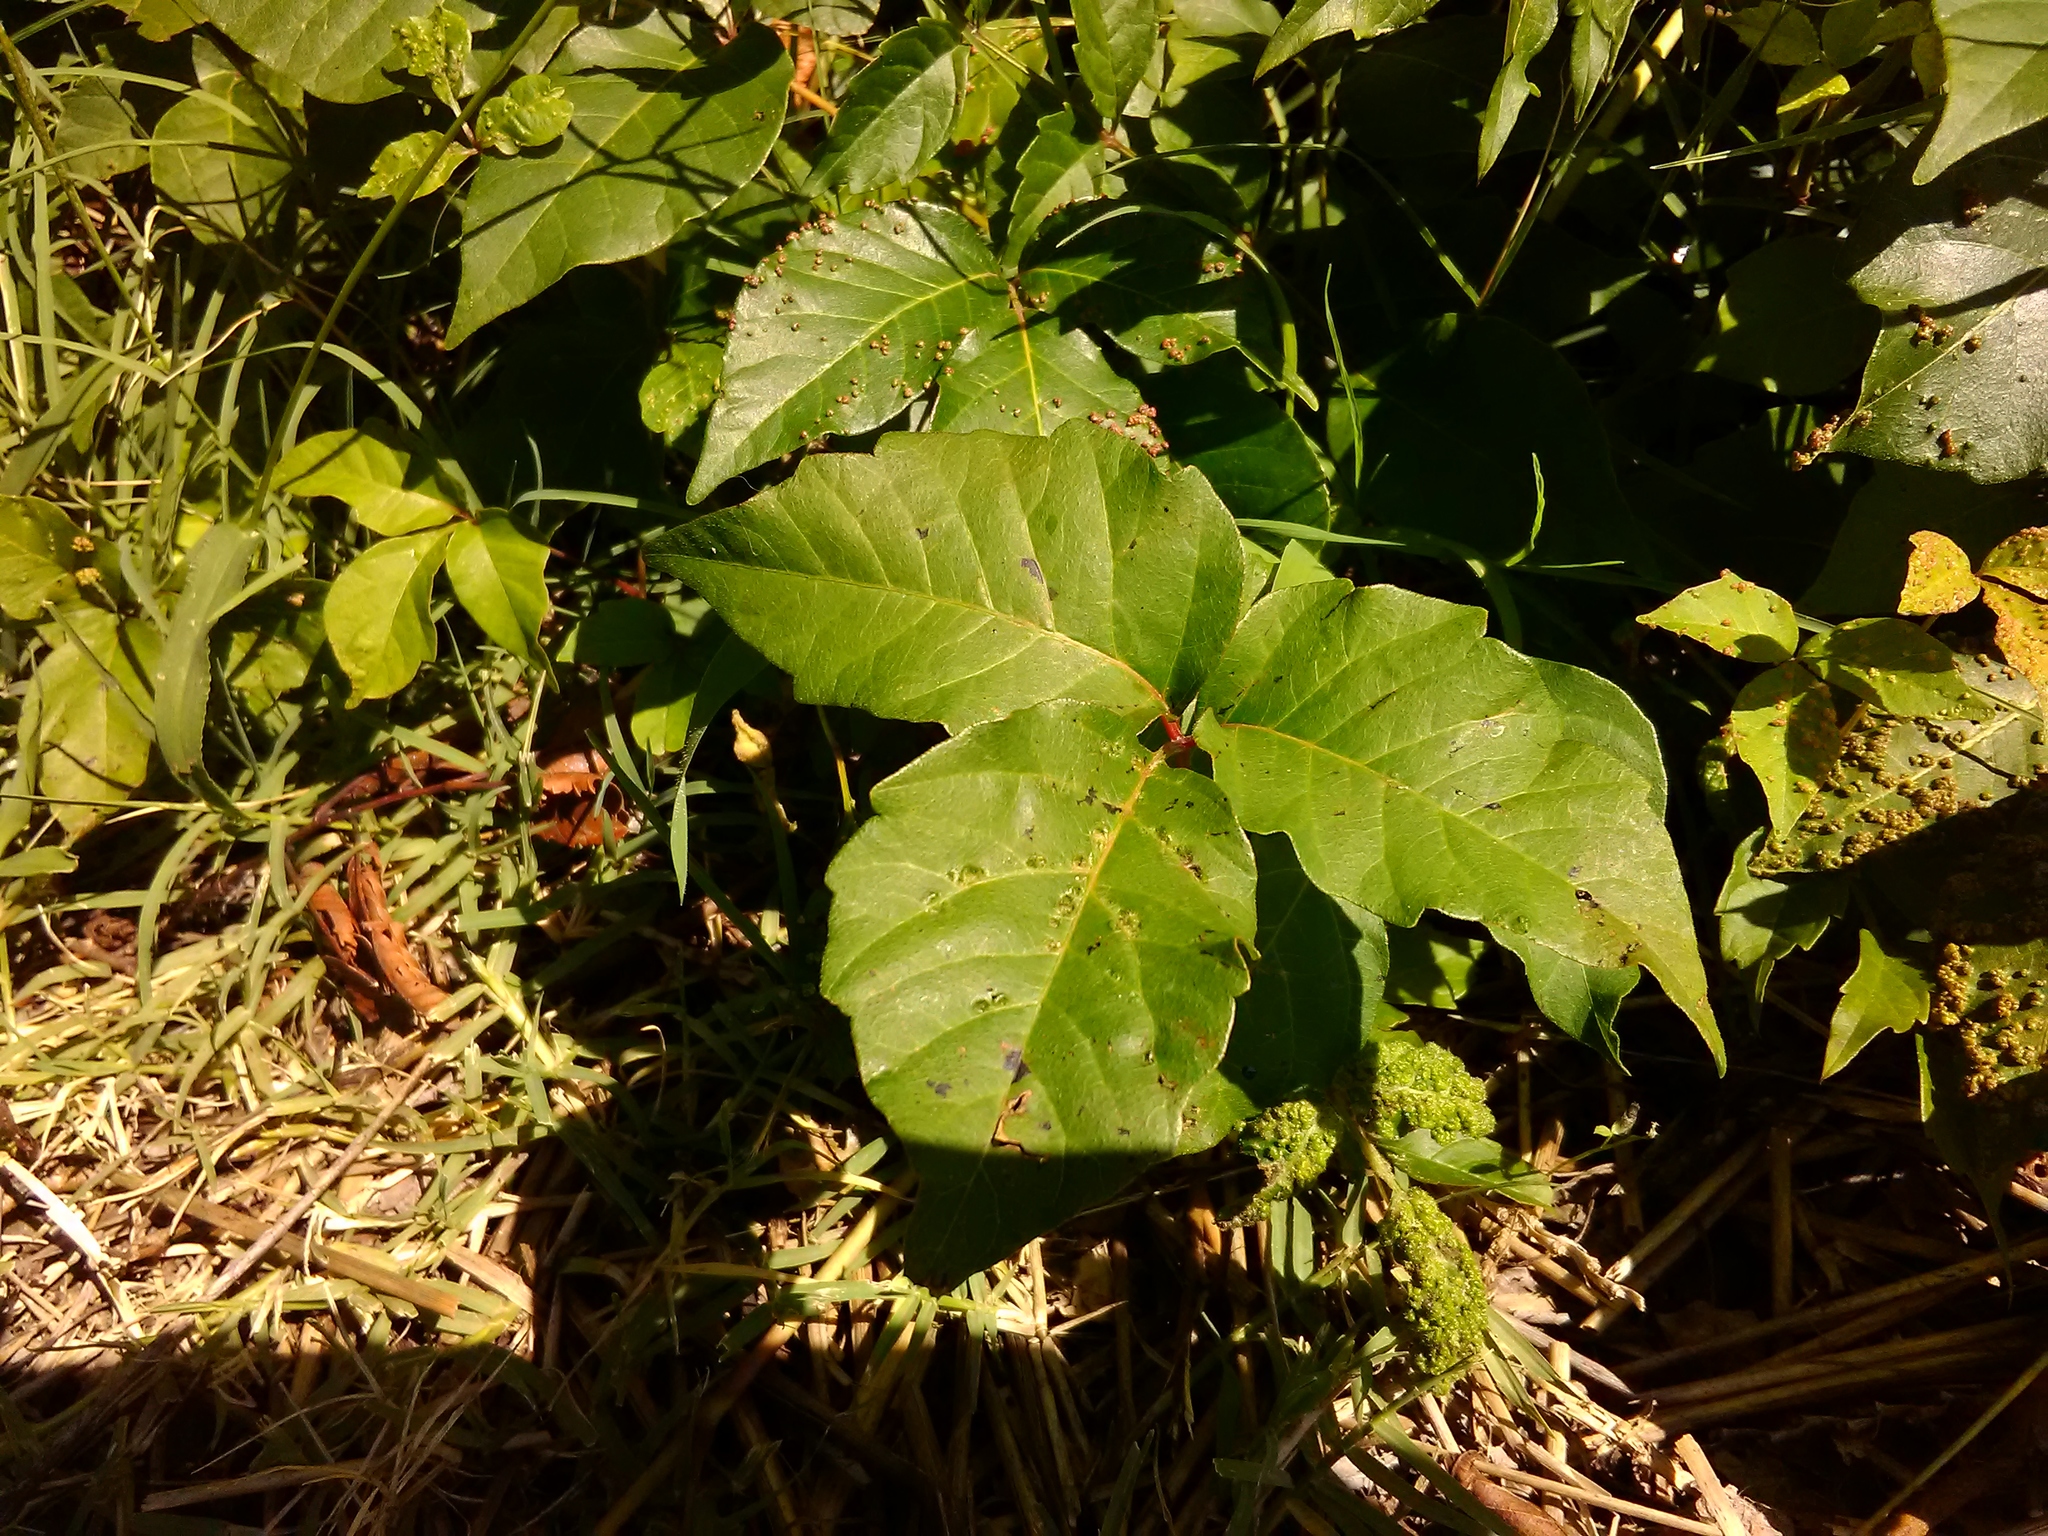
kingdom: Plantae
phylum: Tracheophyta
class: Magnoliopsida
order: Sapindales
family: Anacardiaceae
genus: Toxicodendron
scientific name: Toxicodendron radicans
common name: Poison ivy
